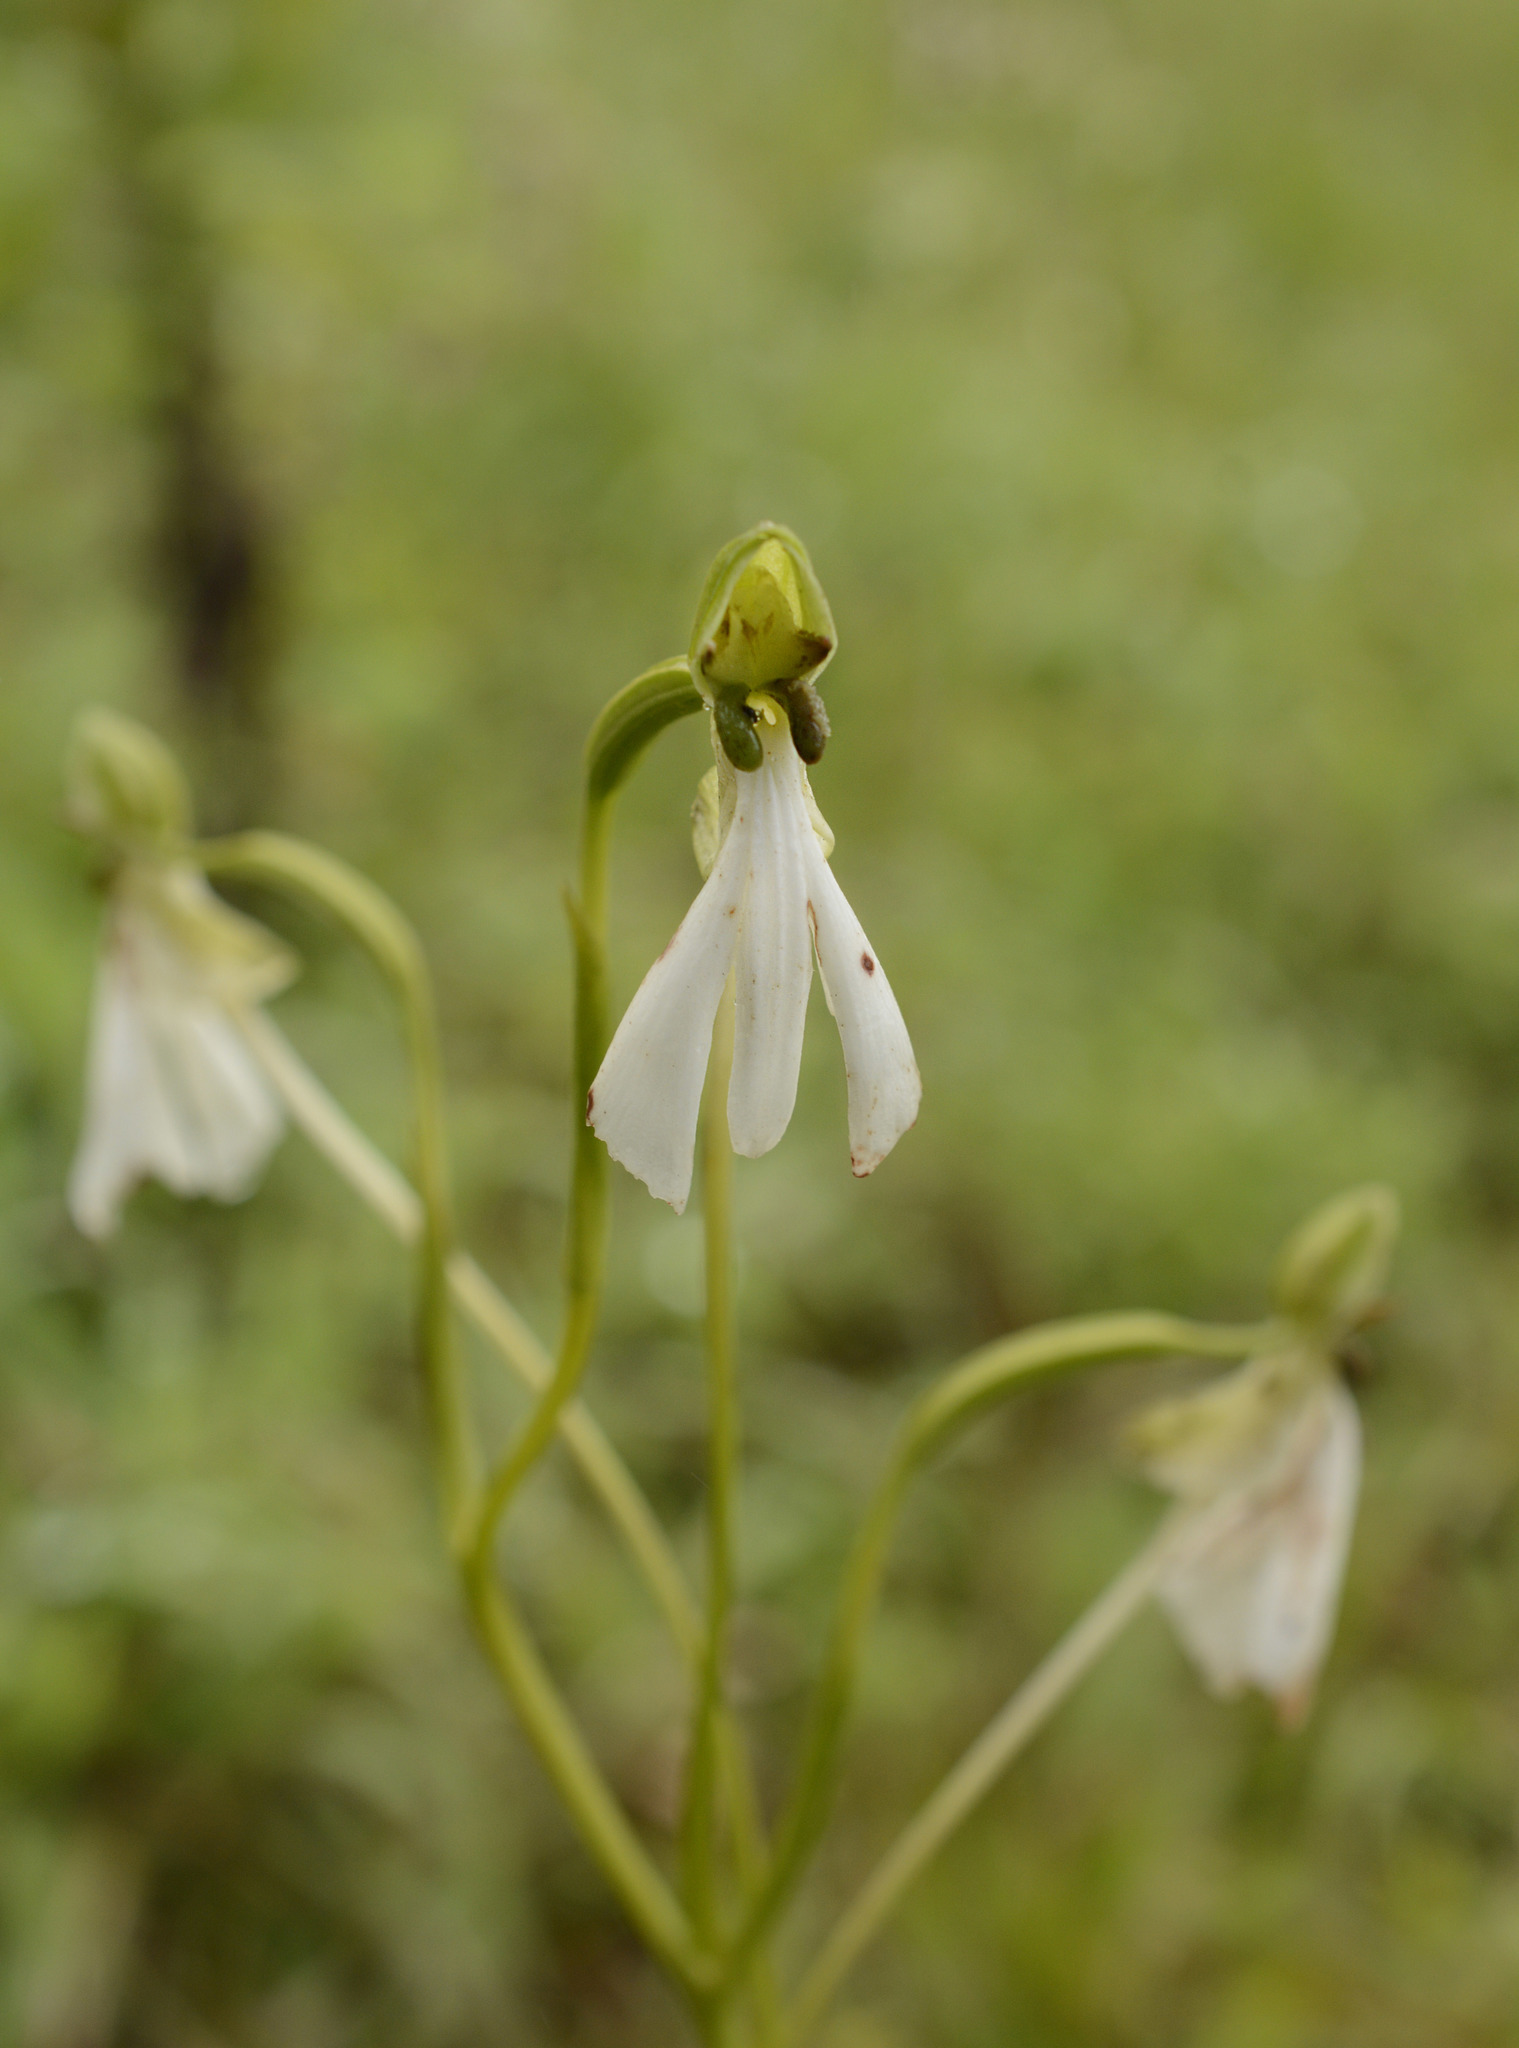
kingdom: Plantae
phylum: Tracheophyta
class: Liliopsida
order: Asparagales
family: Orchidaceae
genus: Habenaria
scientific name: Habenaria longicorniculata
